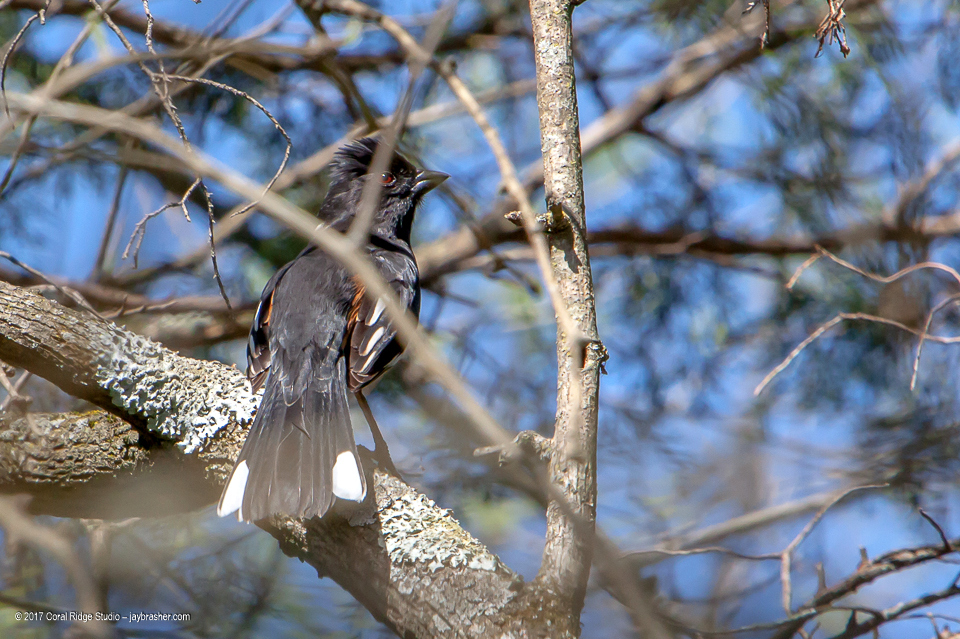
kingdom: Animalia
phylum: Chordata
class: Aves
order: Passeriformes
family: Passerellidae
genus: Pipilo
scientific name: Pipilo erythrophthalmus
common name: Eastern towhee
